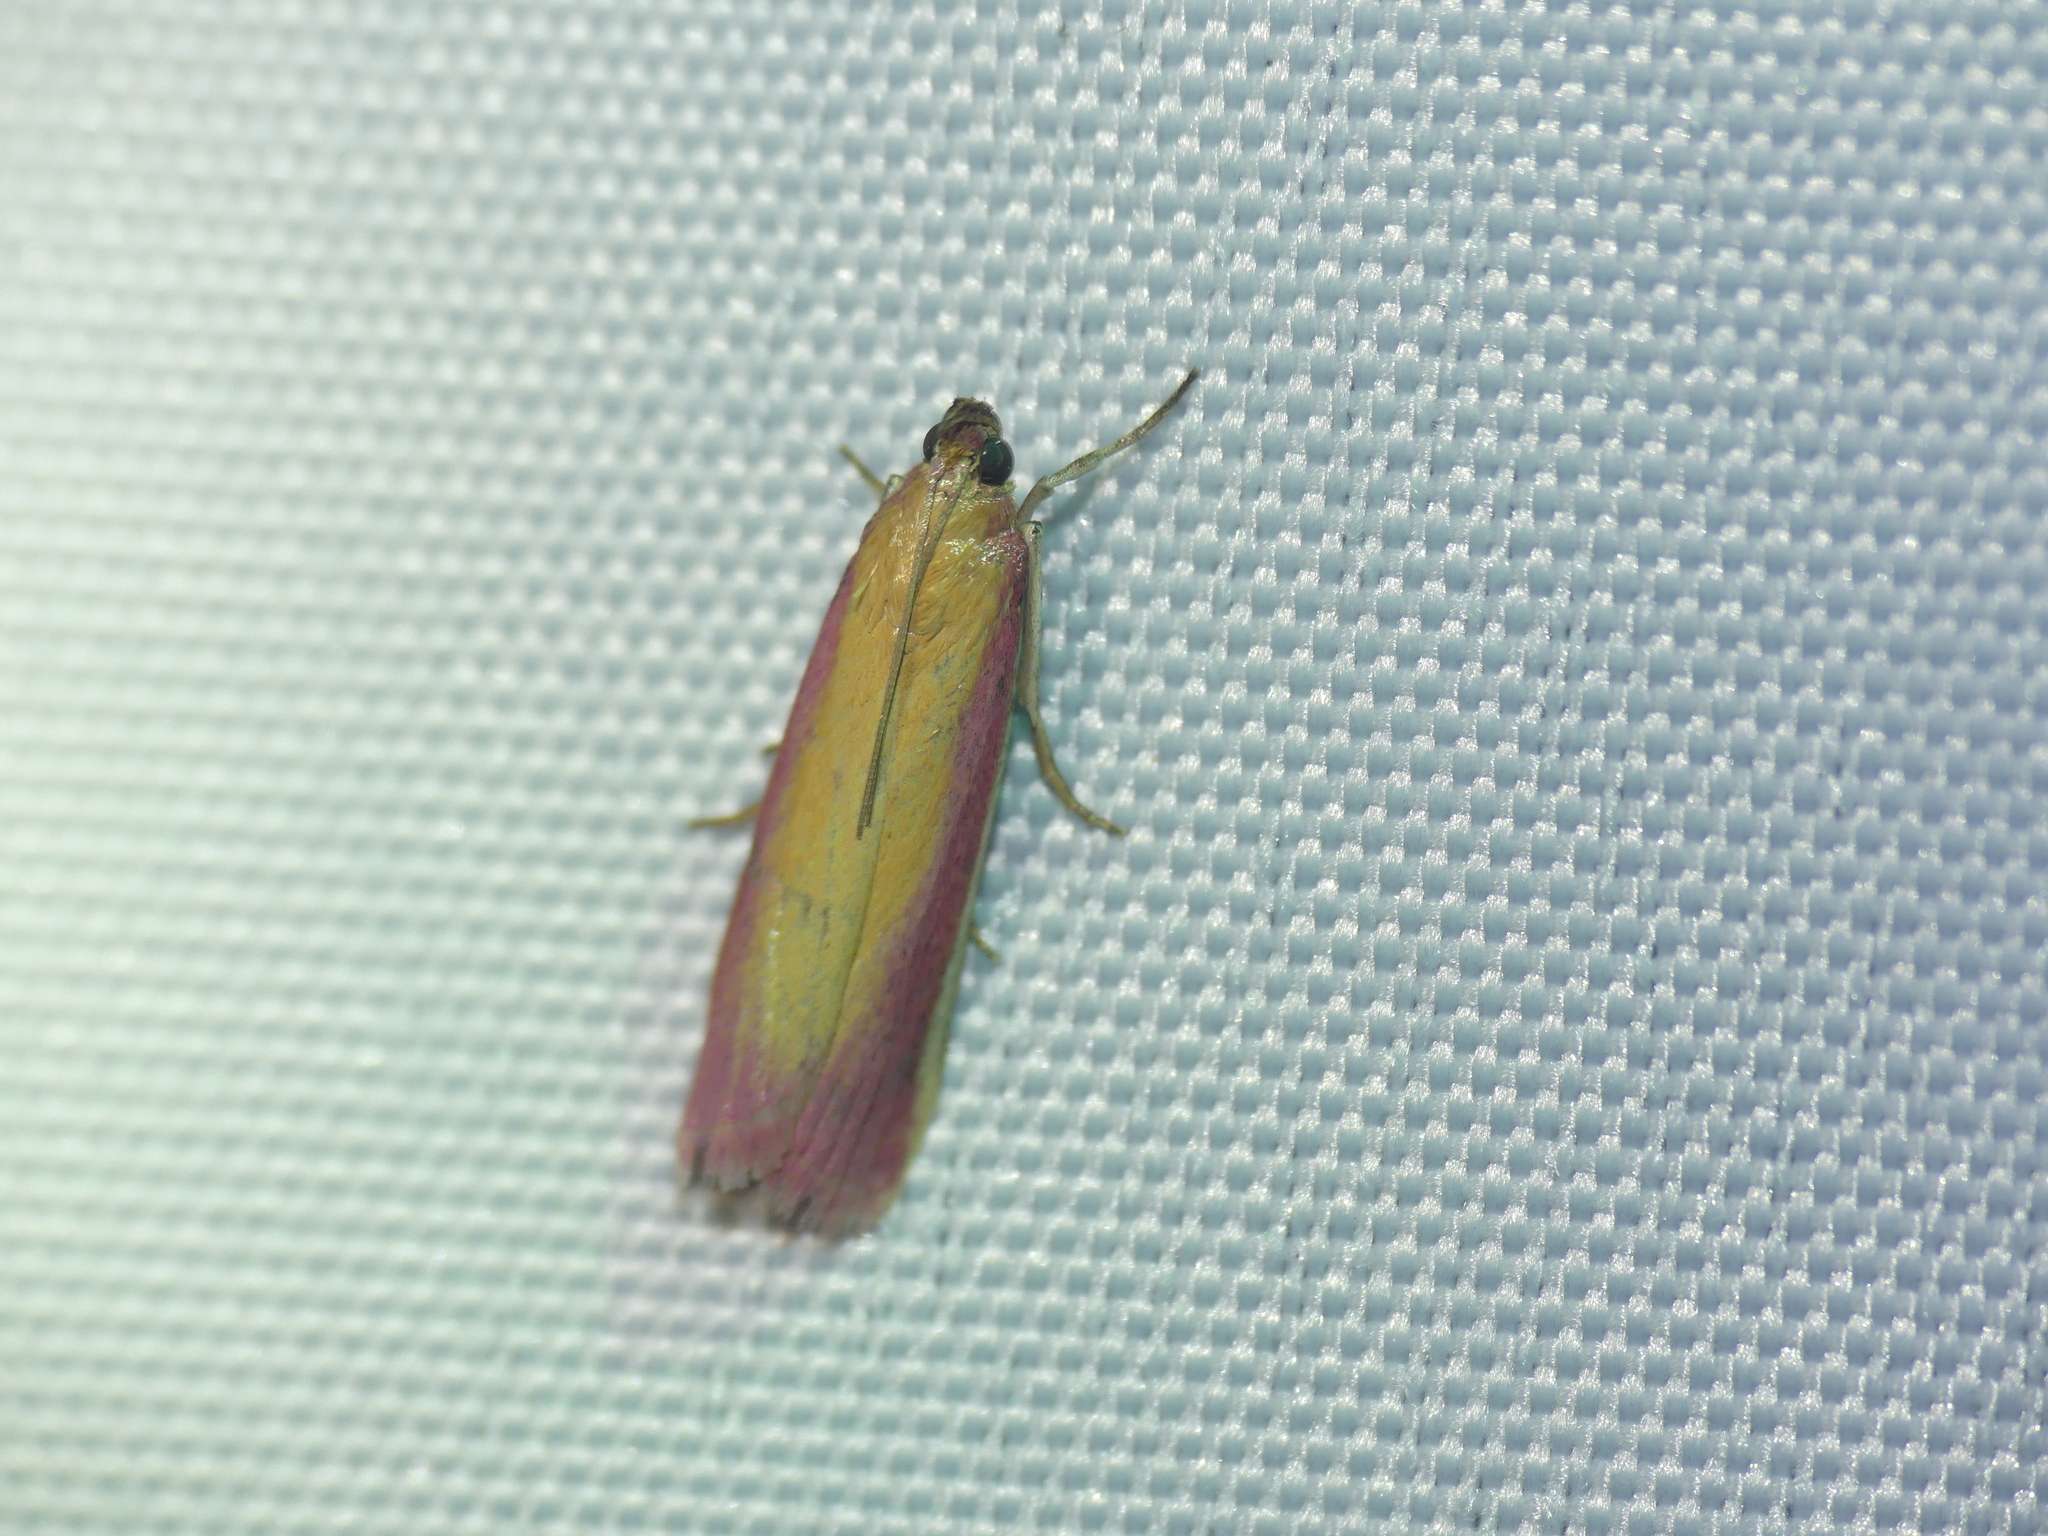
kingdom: Animalia
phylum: Arthropoda
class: Insecta
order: Lepidoptera
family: Pyralidae
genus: Oncocera
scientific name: Oncocera semirubella
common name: Rosy-striped knot-horn
